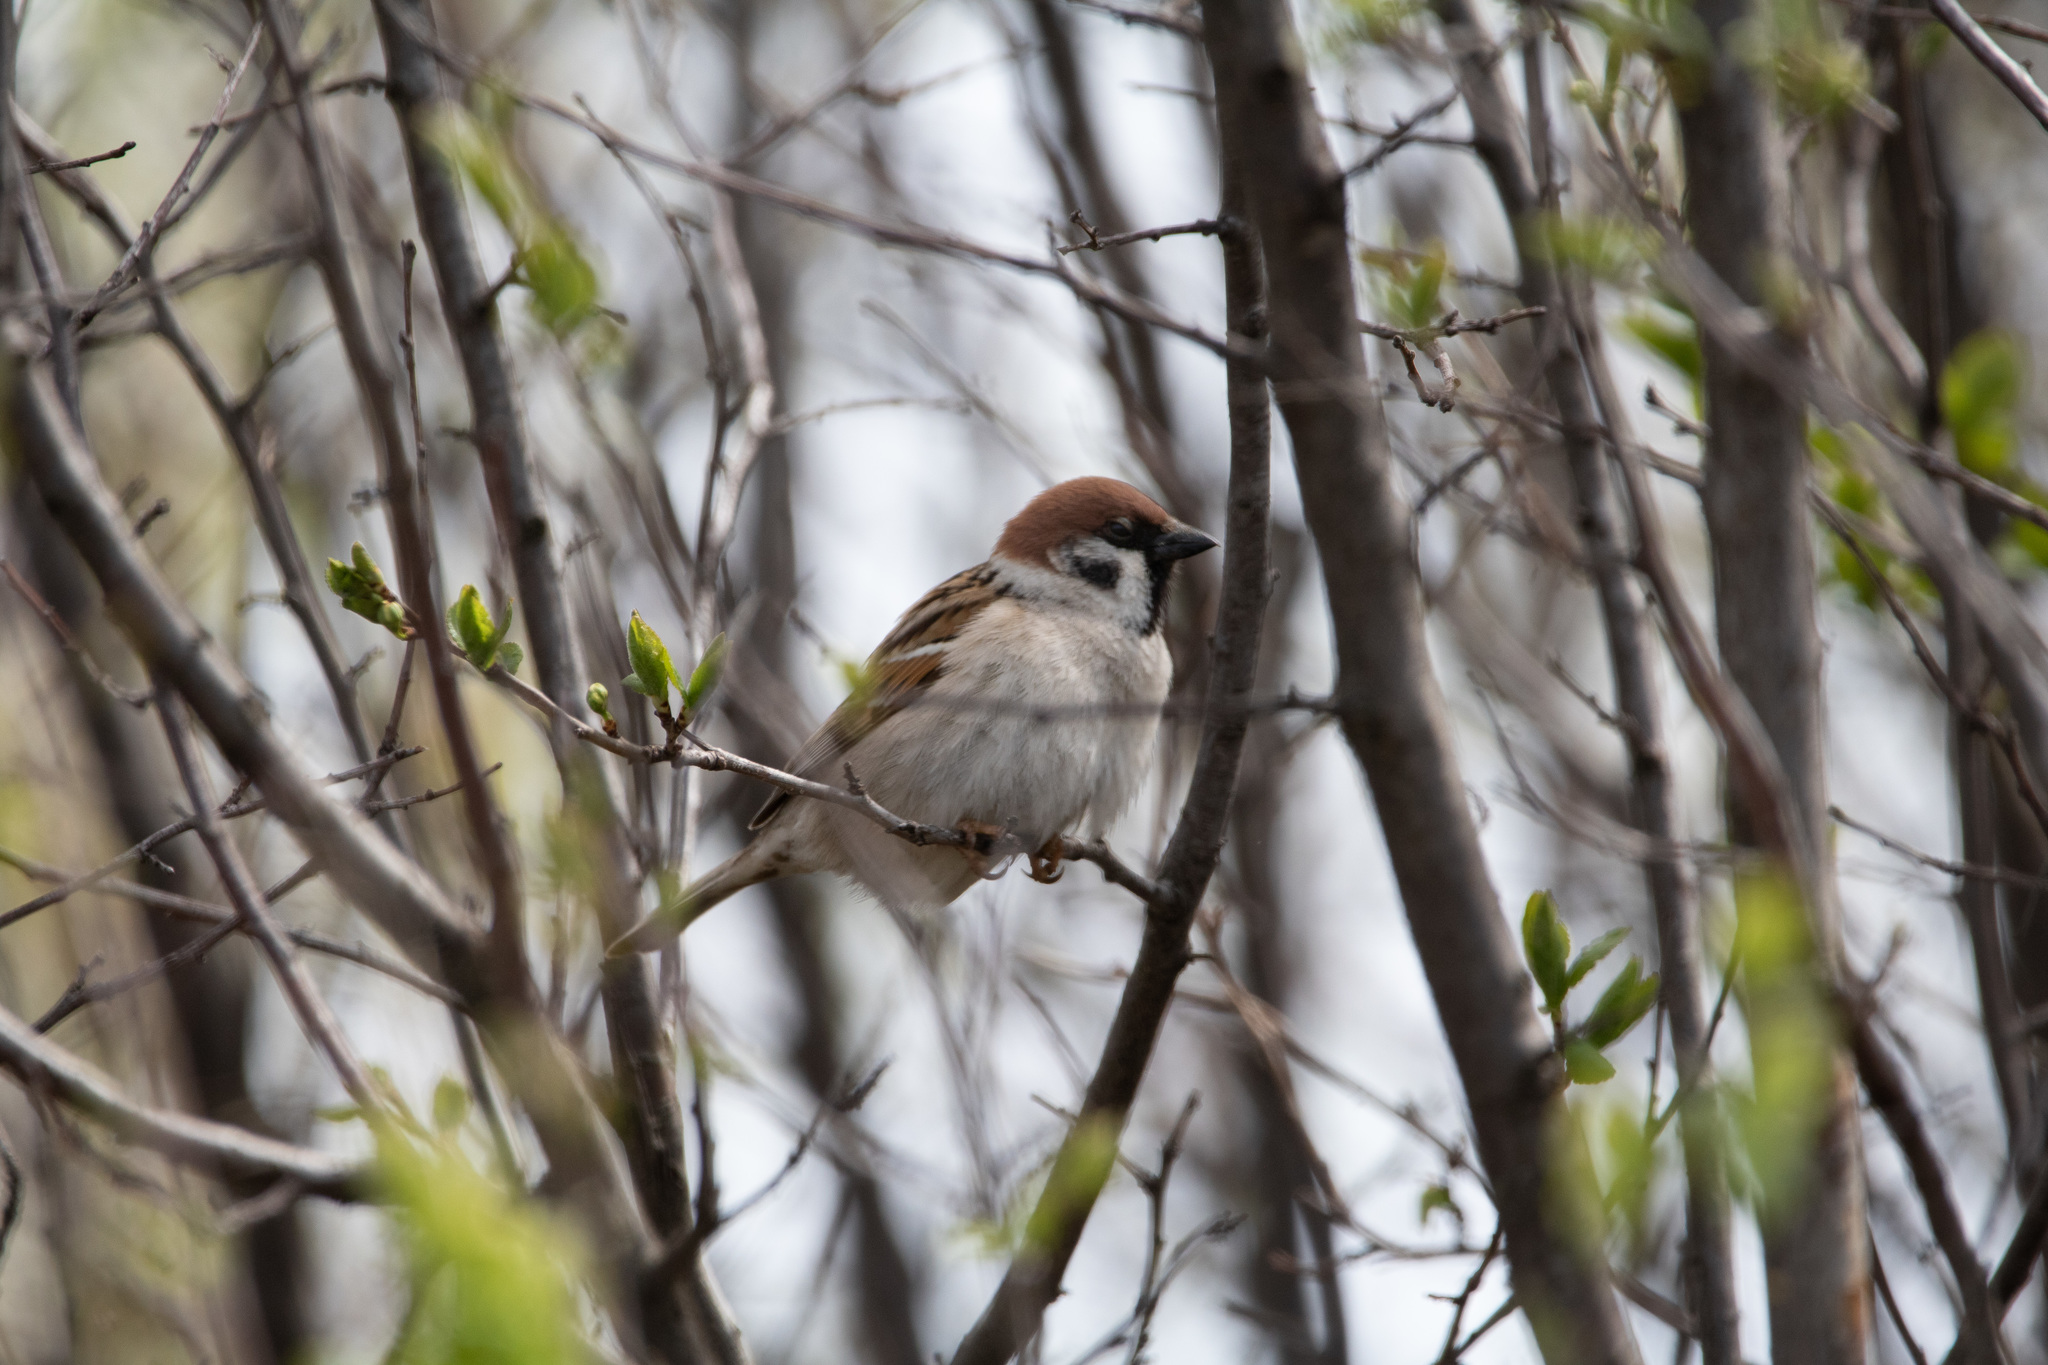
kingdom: Animalia
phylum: Chordata
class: Aves
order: Passeriformes
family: Passeridae
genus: Passer
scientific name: Passer montanus
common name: Eurasian tree sparrow
